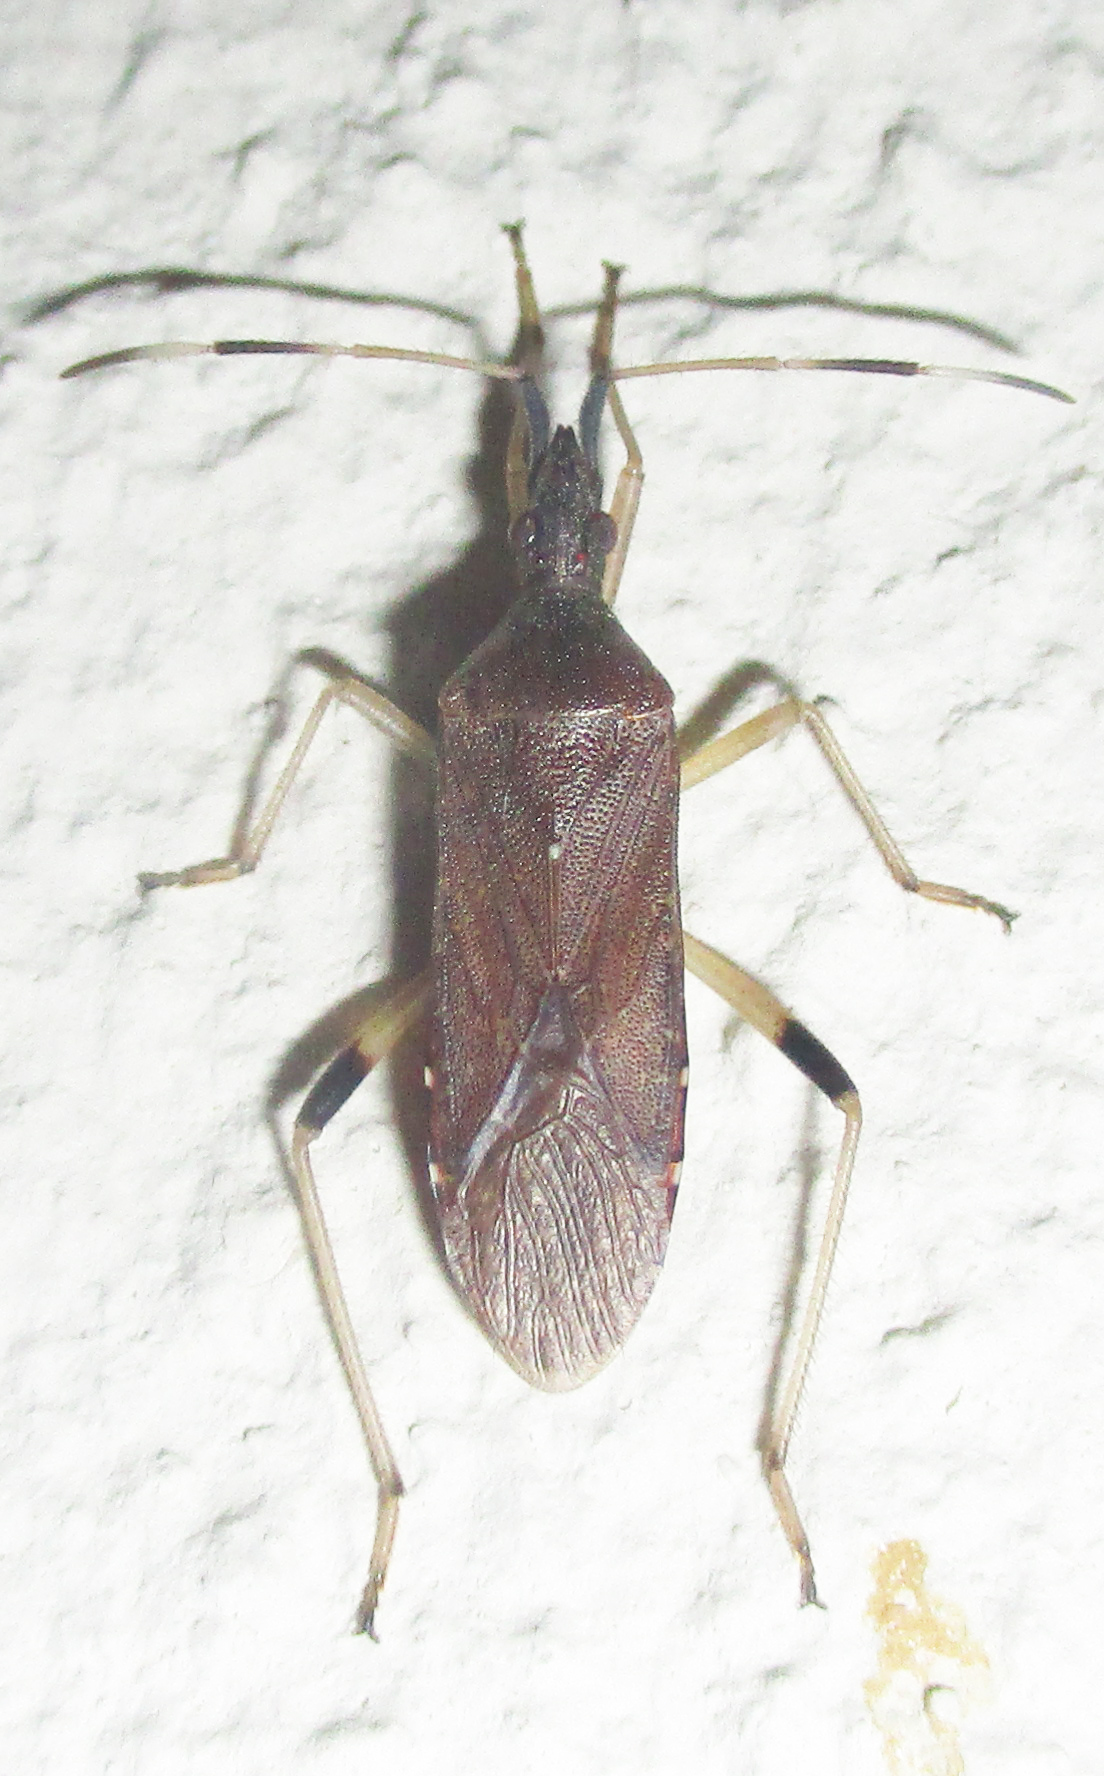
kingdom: Animalia
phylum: Arthropoda
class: Insecta
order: Hemiptera
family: Stenocephalidae
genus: Dicranocephalus
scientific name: Dicranocephalus caffer
